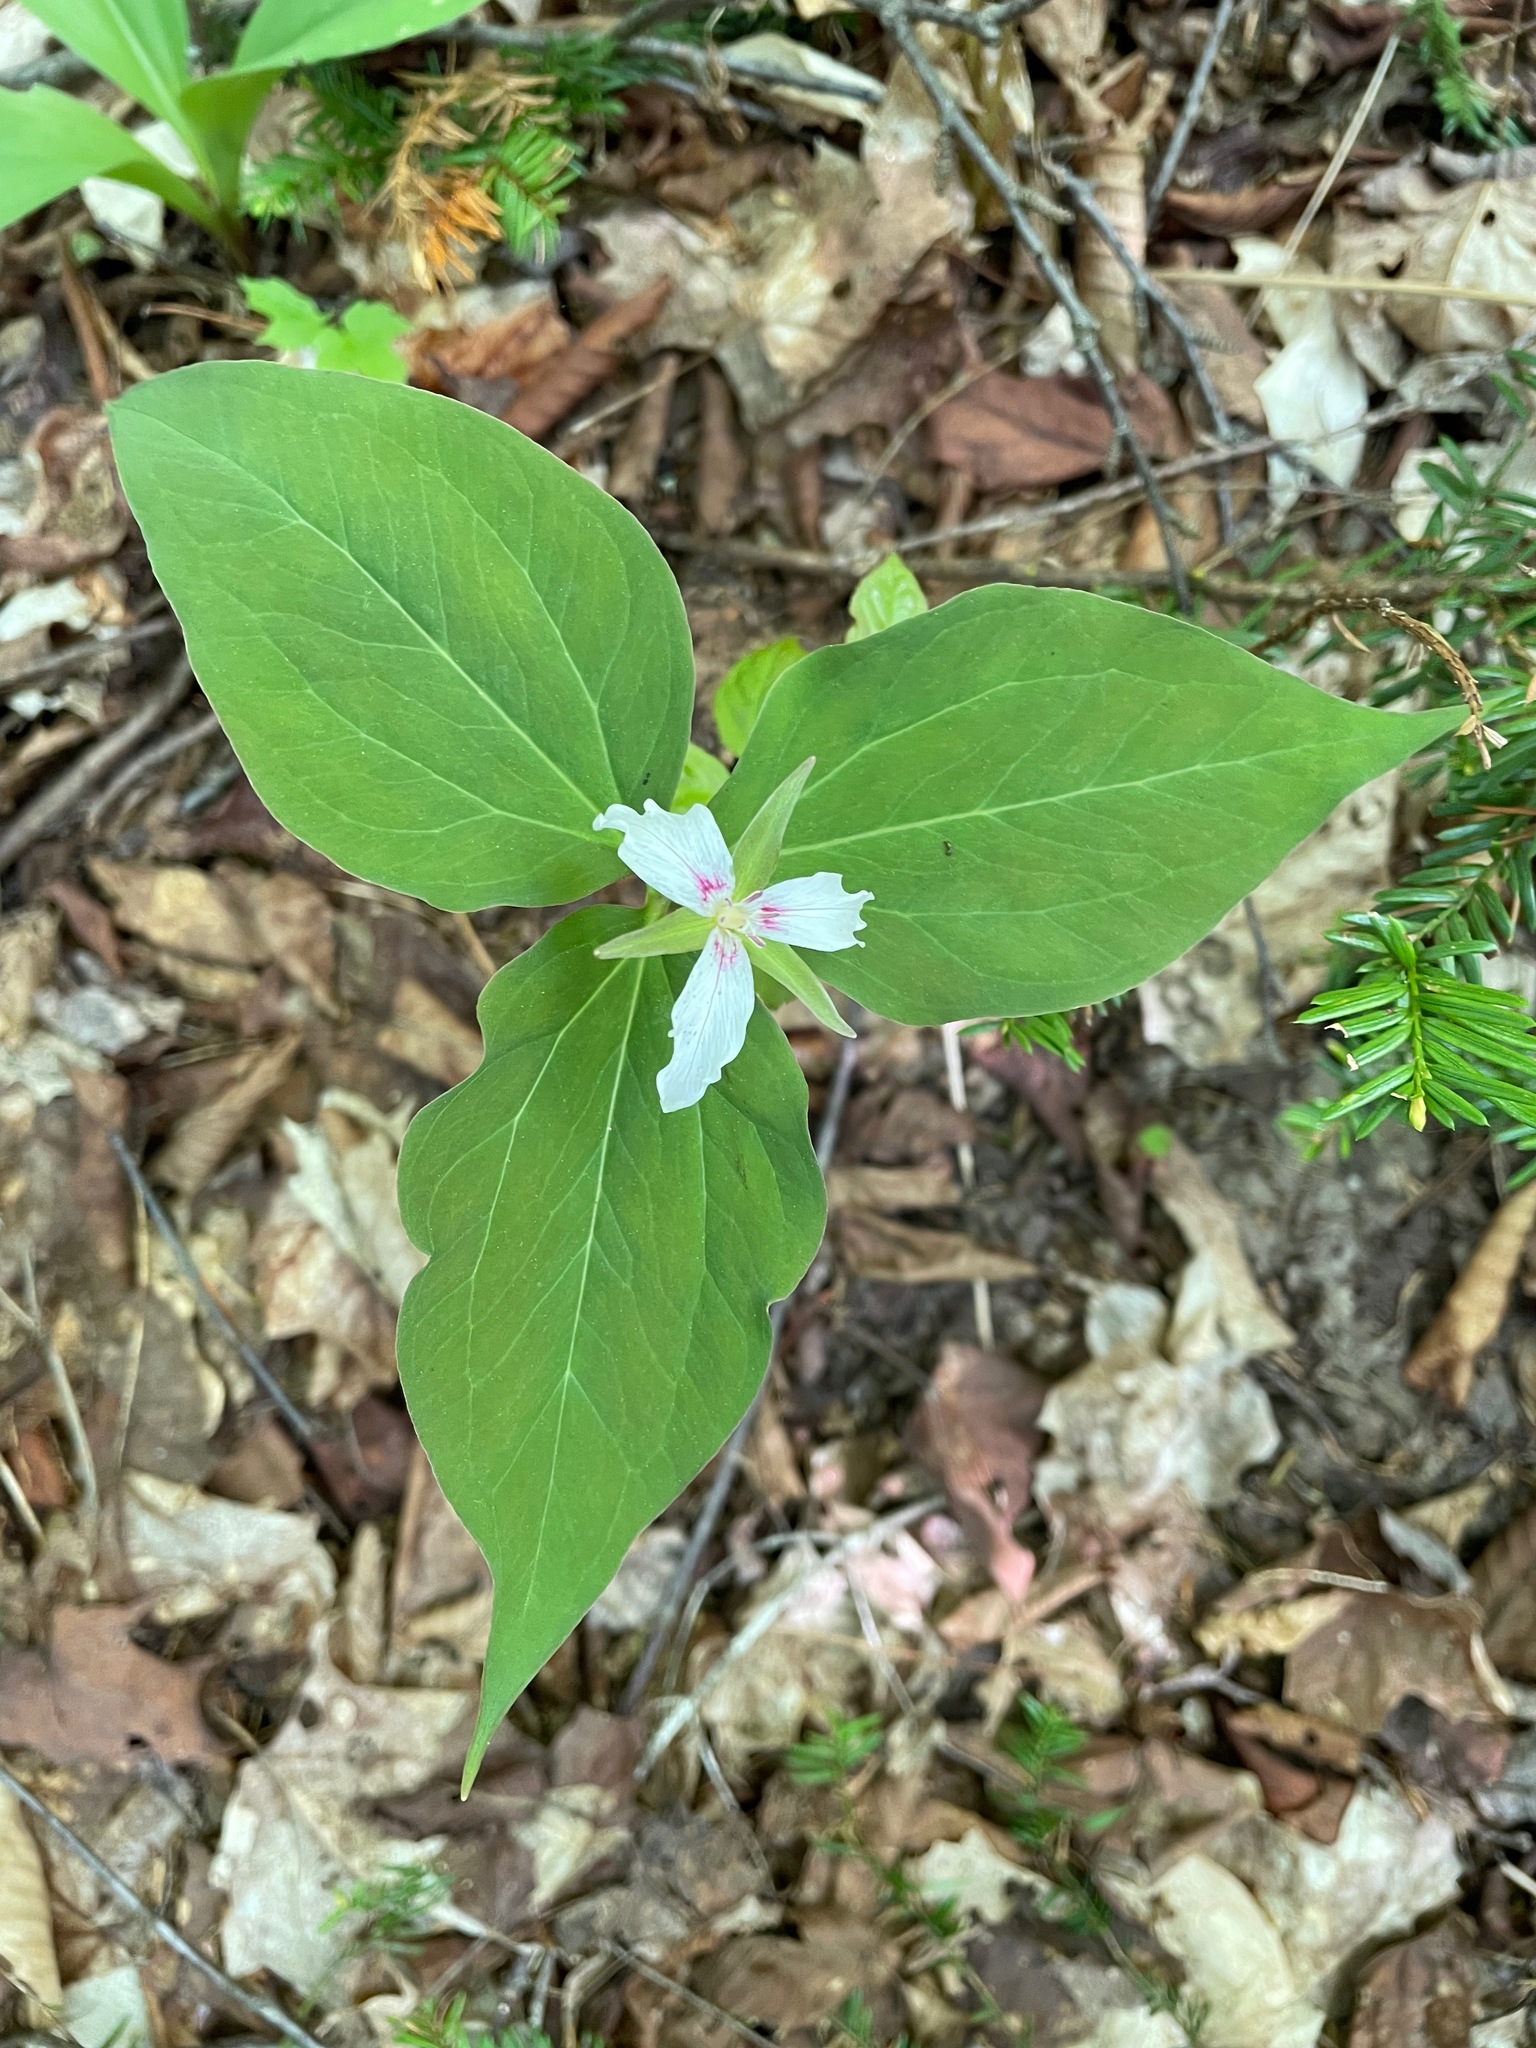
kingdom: Plantae
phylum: Tracheophyta
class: Liliopsida
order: Liliales
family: Melanthiaceae
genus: Trillium
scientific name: Trillium undulatum
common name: Paint trillium
